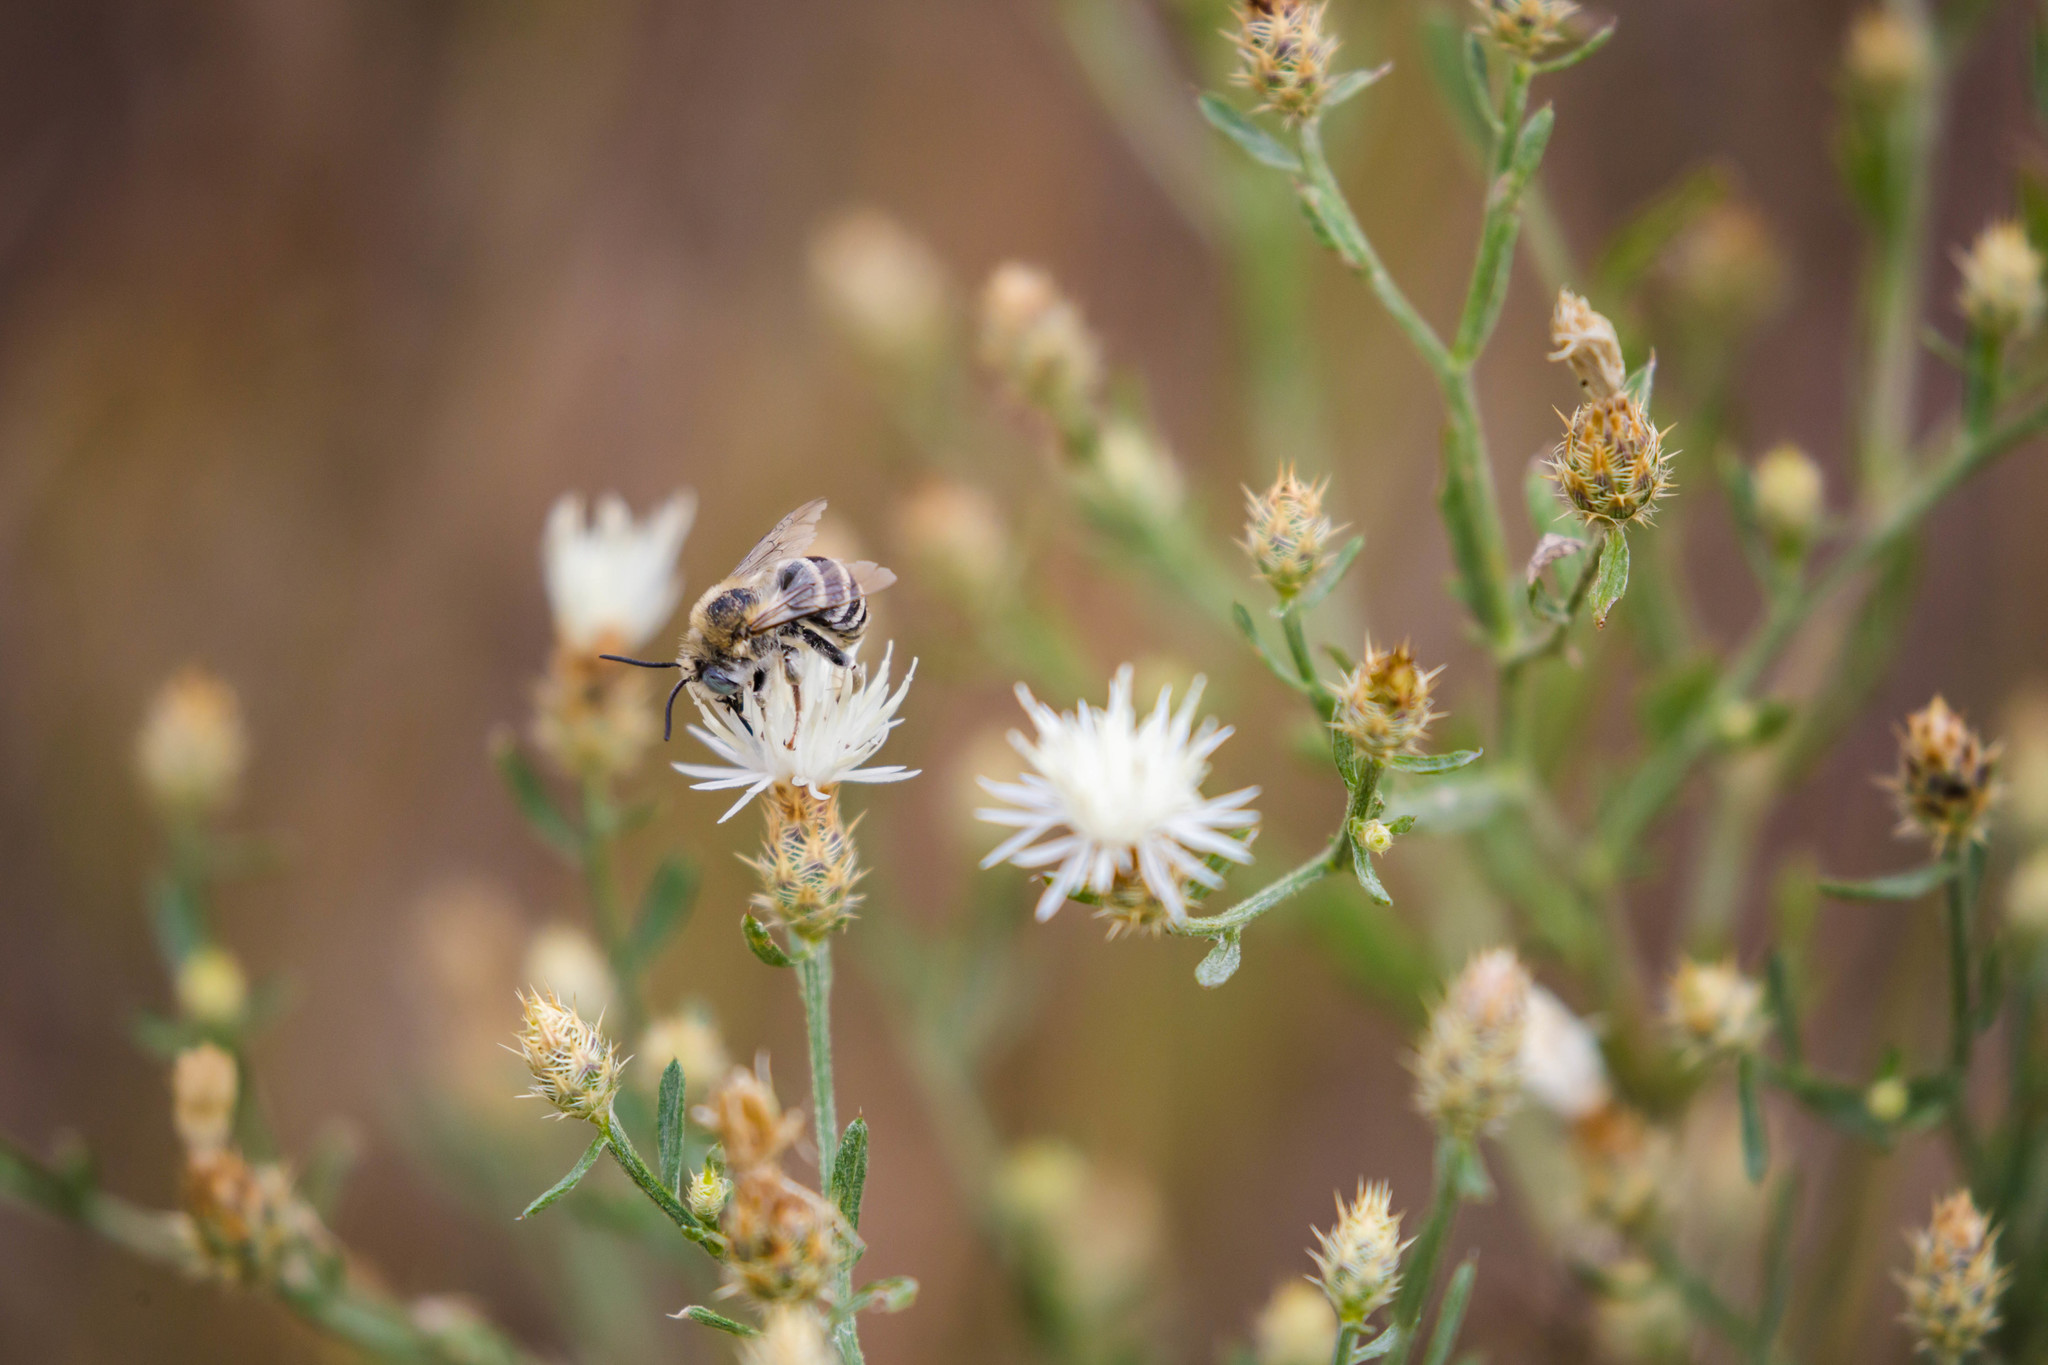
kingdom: Animalia
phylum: Arthropoda
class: Insecta
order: Hymenoptera
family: Apidae
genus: Anthophora
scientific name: Anthophora urbana
